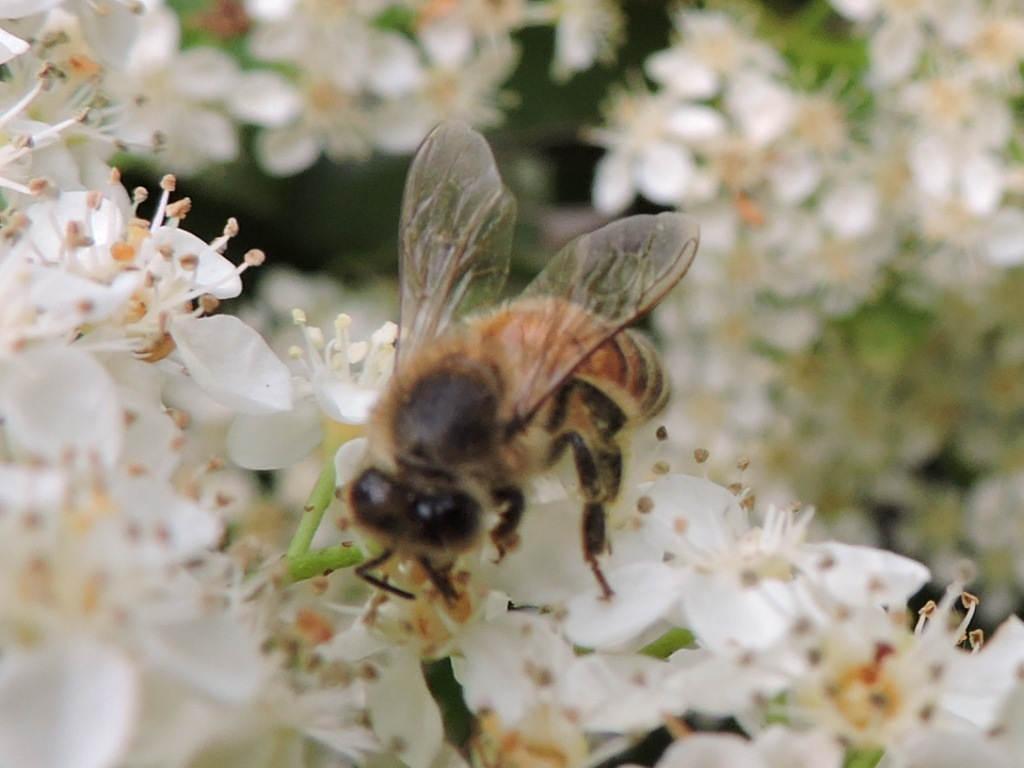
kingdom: Animalia
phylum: Arthropoda
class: Insecta
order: Hymenoptera
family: Apidae
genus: Apis
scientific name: Apis mellifera
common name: Honey bee
